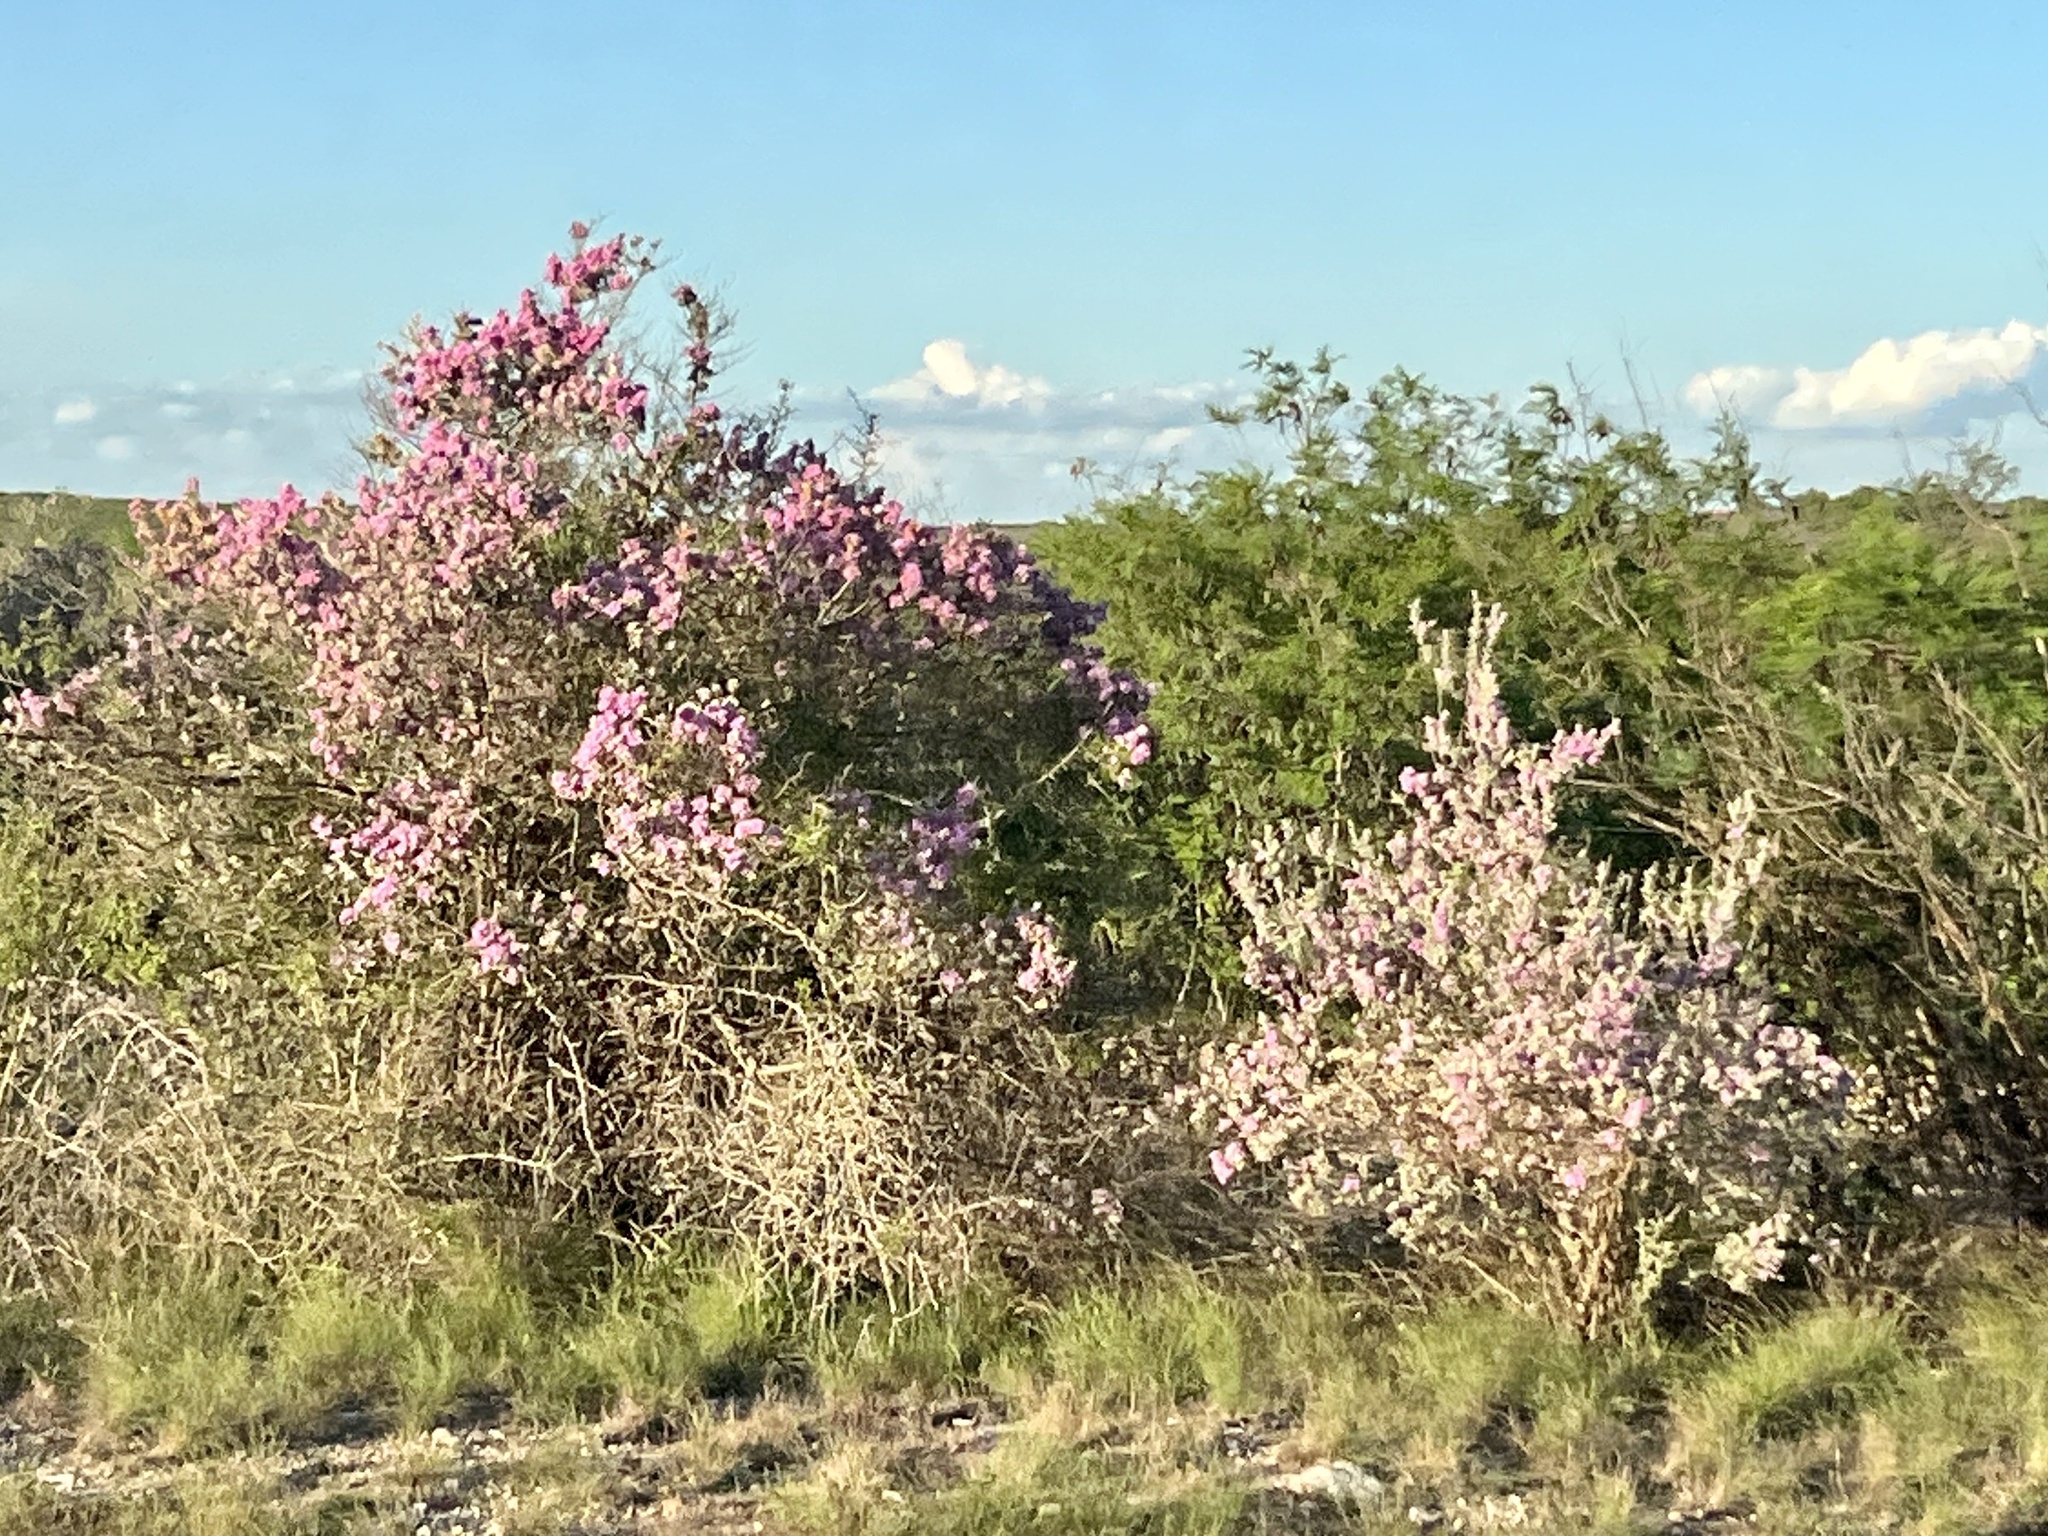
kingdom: Plantae
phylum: Tracheophyta
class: Magnoliopsida
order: Lamiales
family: Scrophulariaceae
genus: Leucophyllum
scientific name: Leucophyllum frutescens
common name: Texas silverleaf
